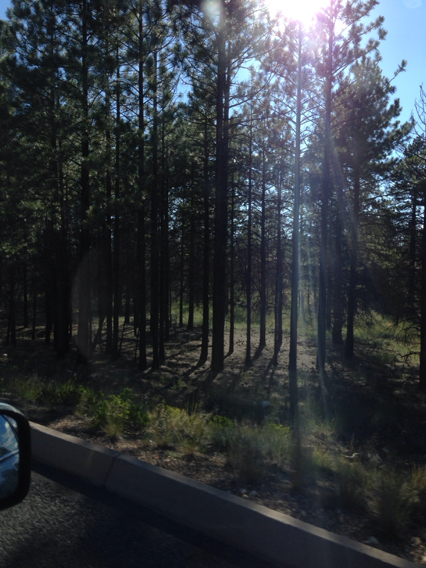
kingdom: Plantae
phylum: Tracheophyta
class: Pinopsida
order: Pinales
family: Pinaceae
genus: Pinus
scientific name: Pinus ponderosa
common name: Western yellow-pine
